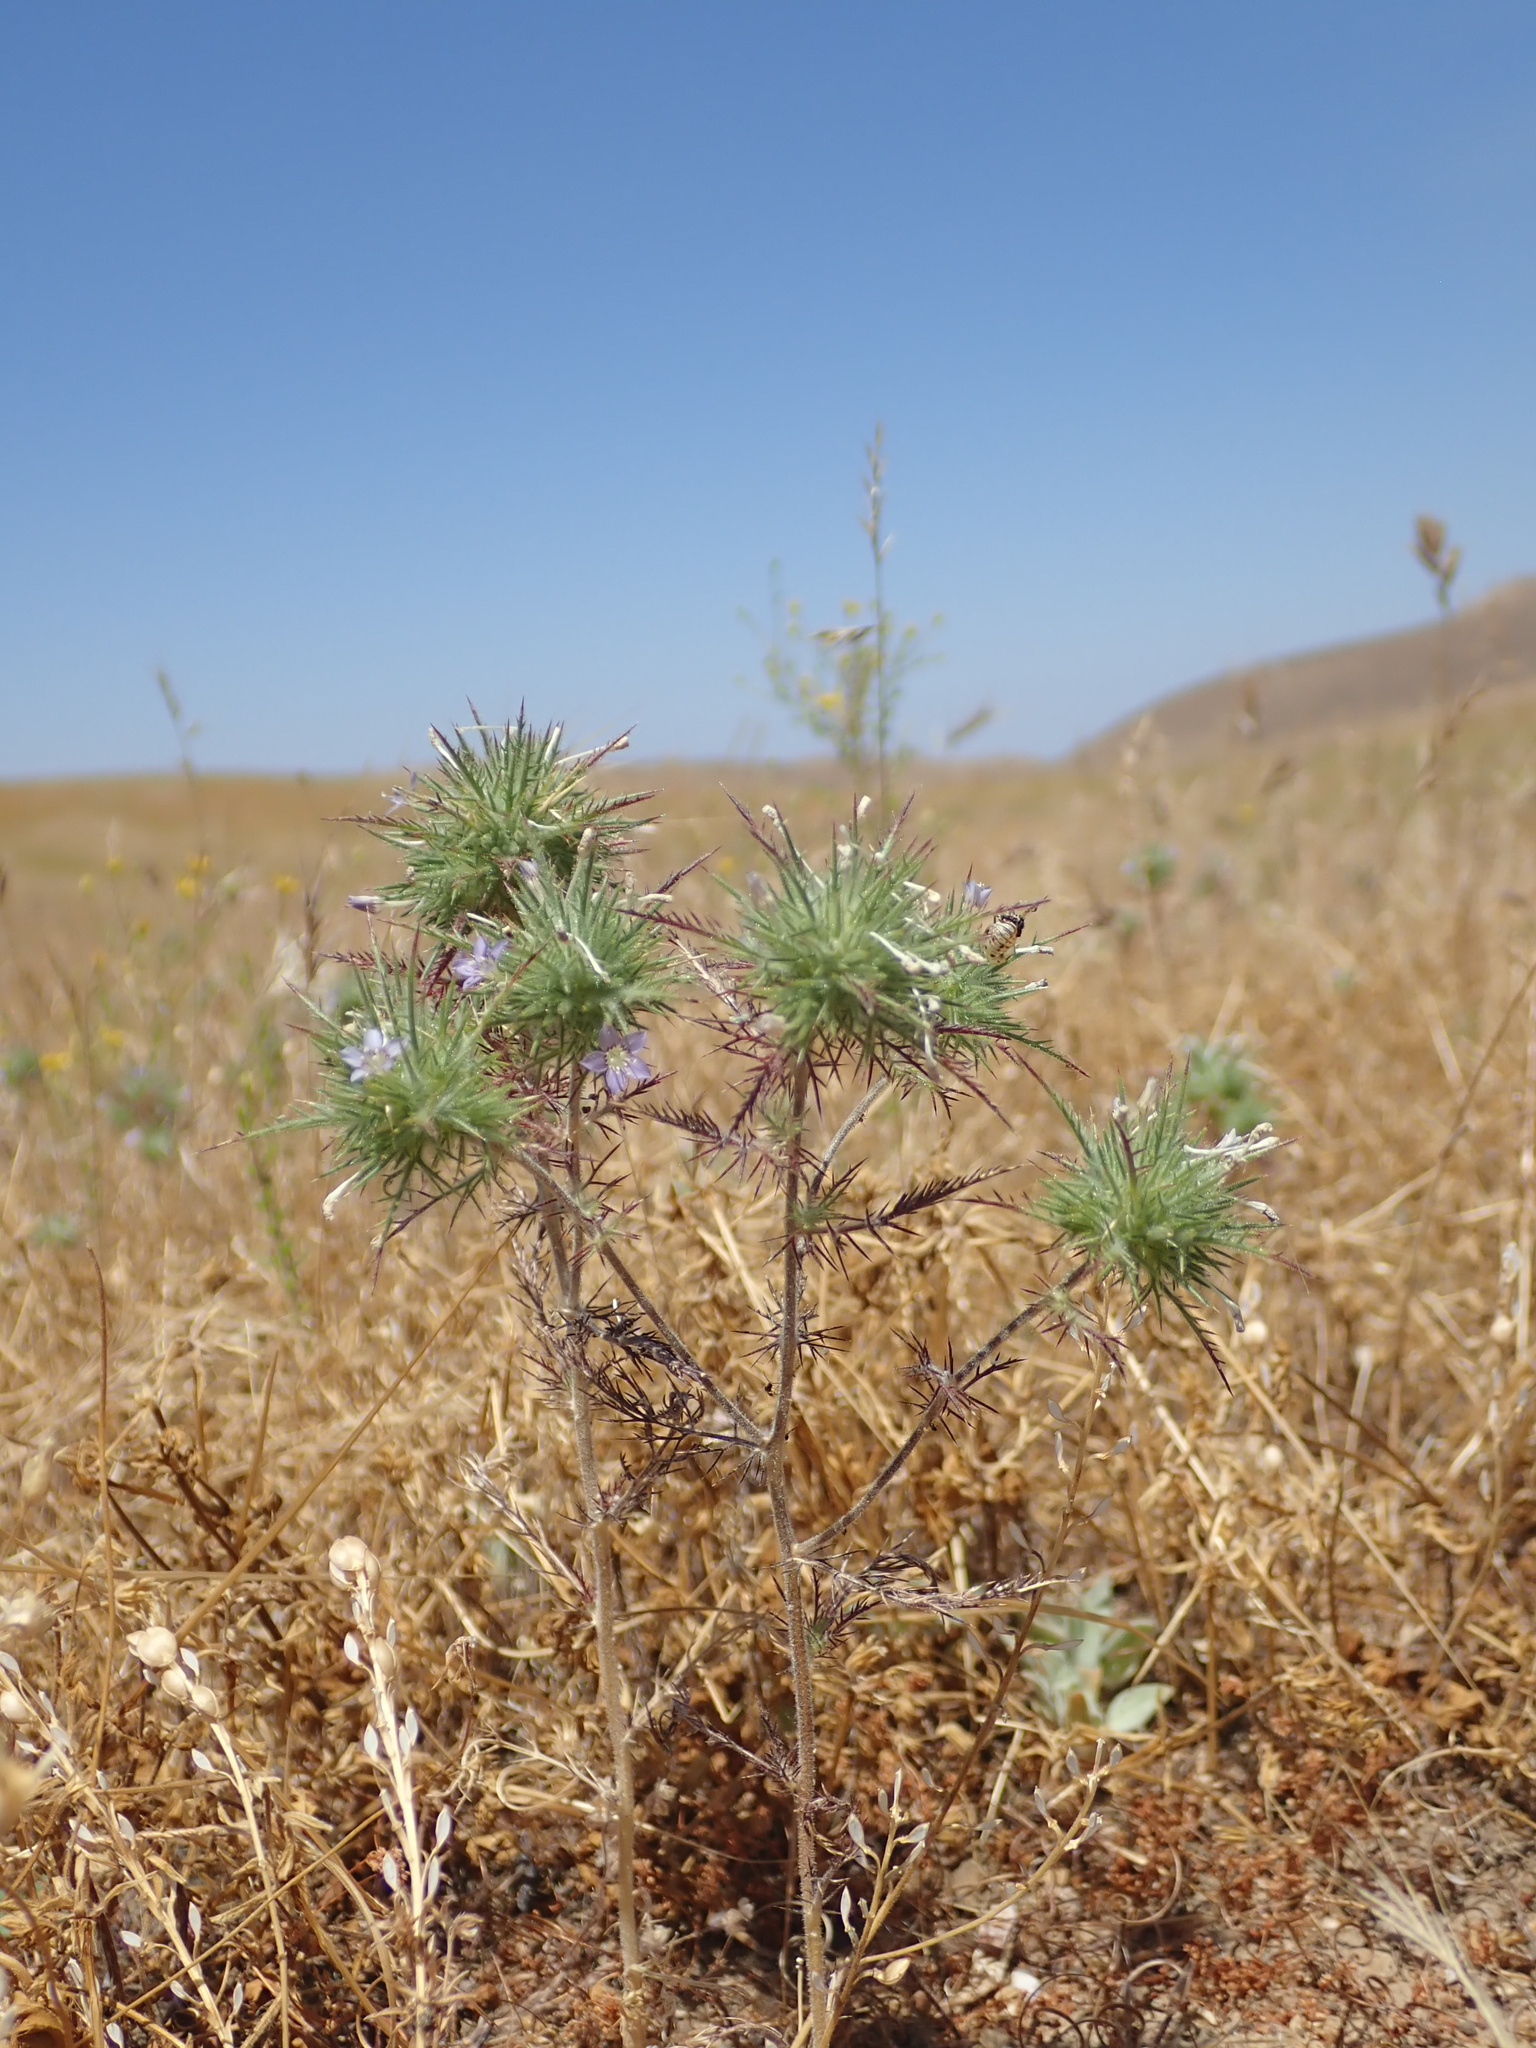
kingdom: Plantae
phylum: Tracheophyta
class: Magnoliopsida
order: Ericales
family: Polemoniaceae
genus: Navarretia
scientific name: Navarretia panochensis
